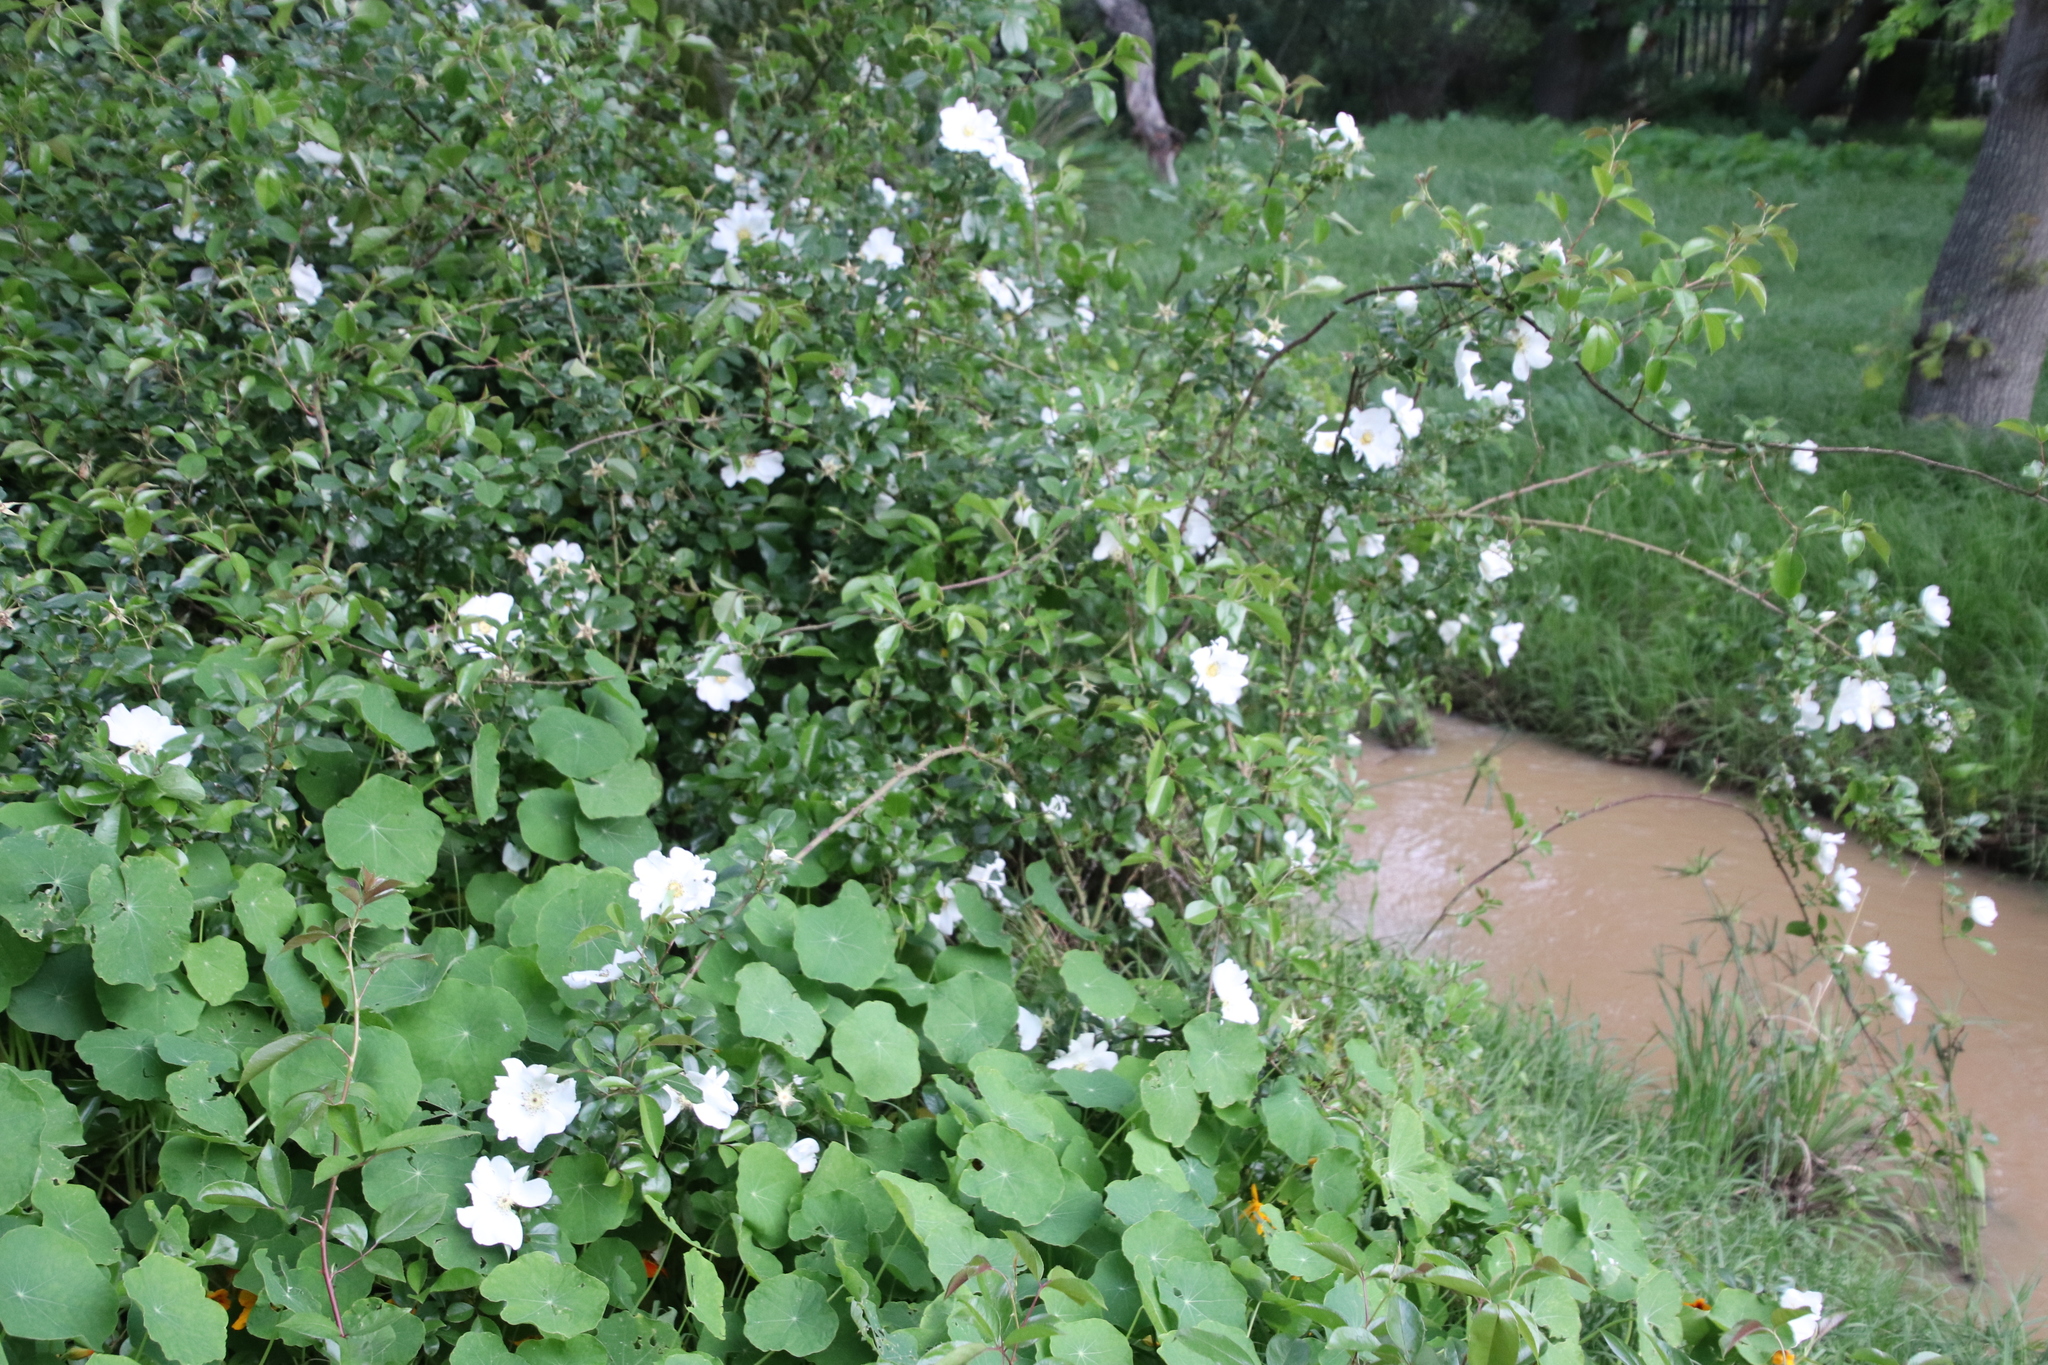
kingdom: Plantae
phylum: Tracheophyta
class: Magnoliopsida
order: Rosales
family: Rosaceae
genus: Rosa
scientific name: Rosa laevigata
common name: Cherokee rose
